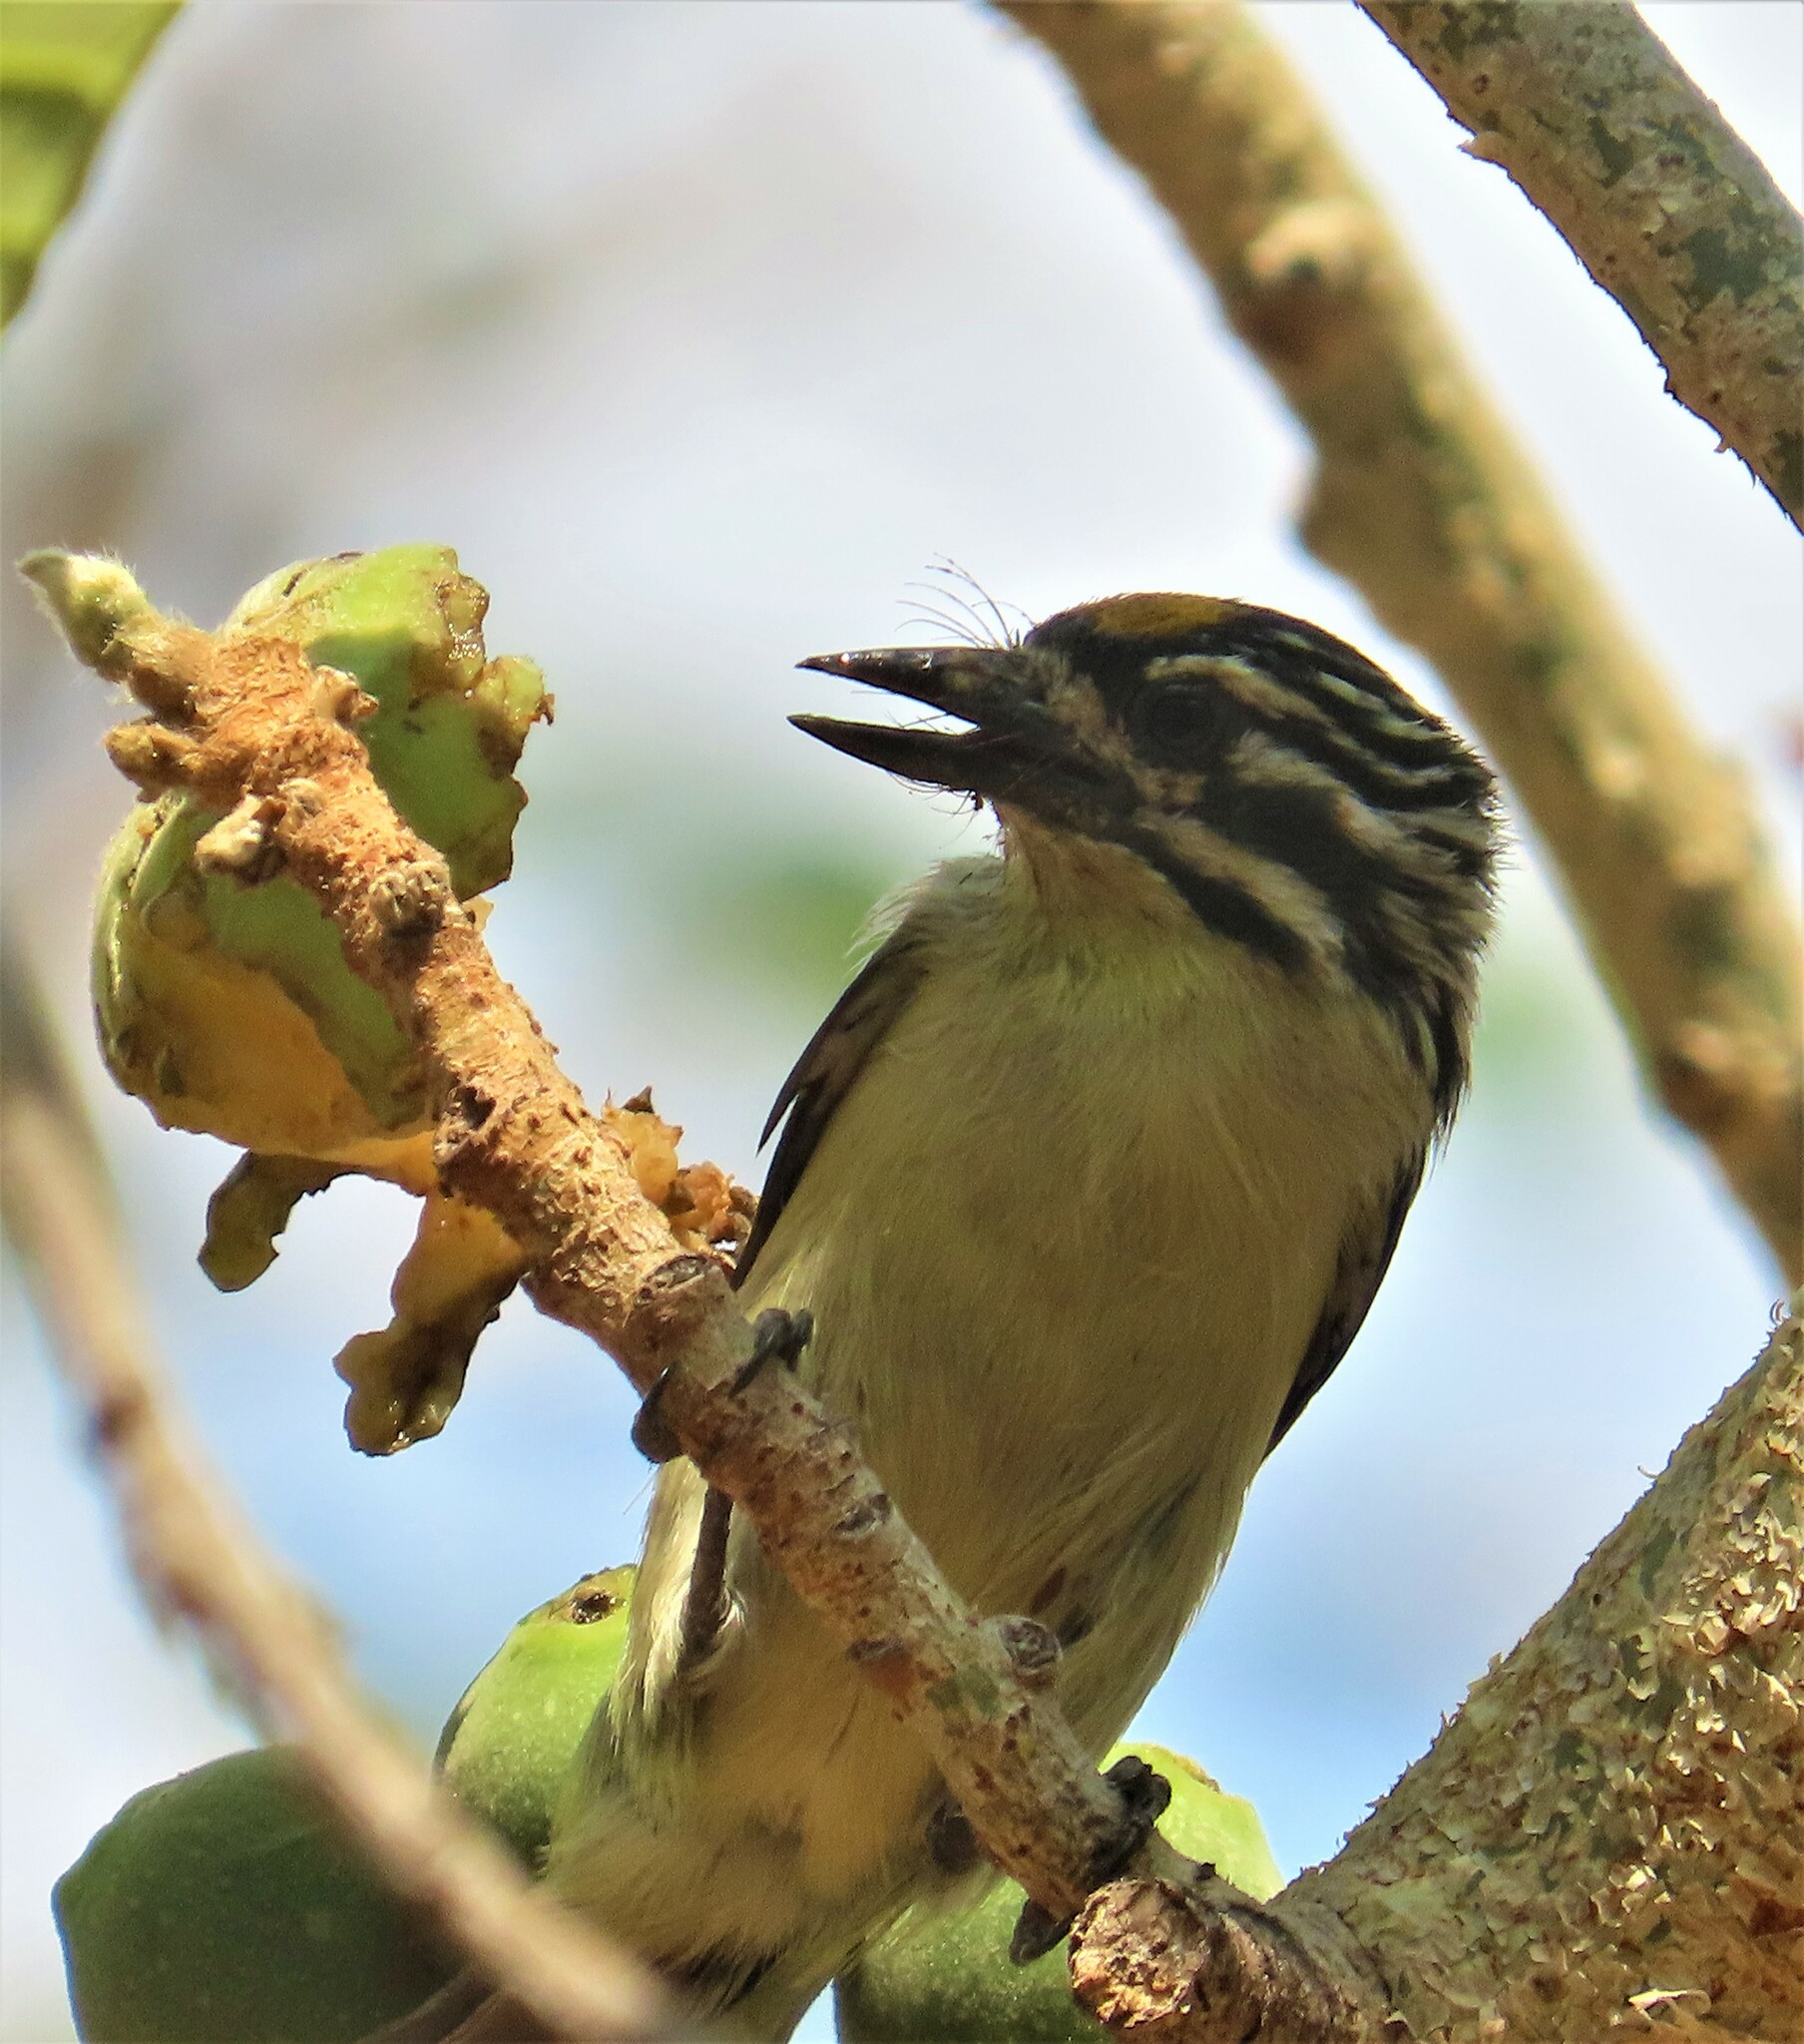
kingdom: Animalia
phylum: Chordata
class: Aves
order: Piciformes
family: Lybiidae
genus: Pogoniulus
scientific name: Pogoniulus chrysoconus
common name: Yellow-fronted tinkerbird
